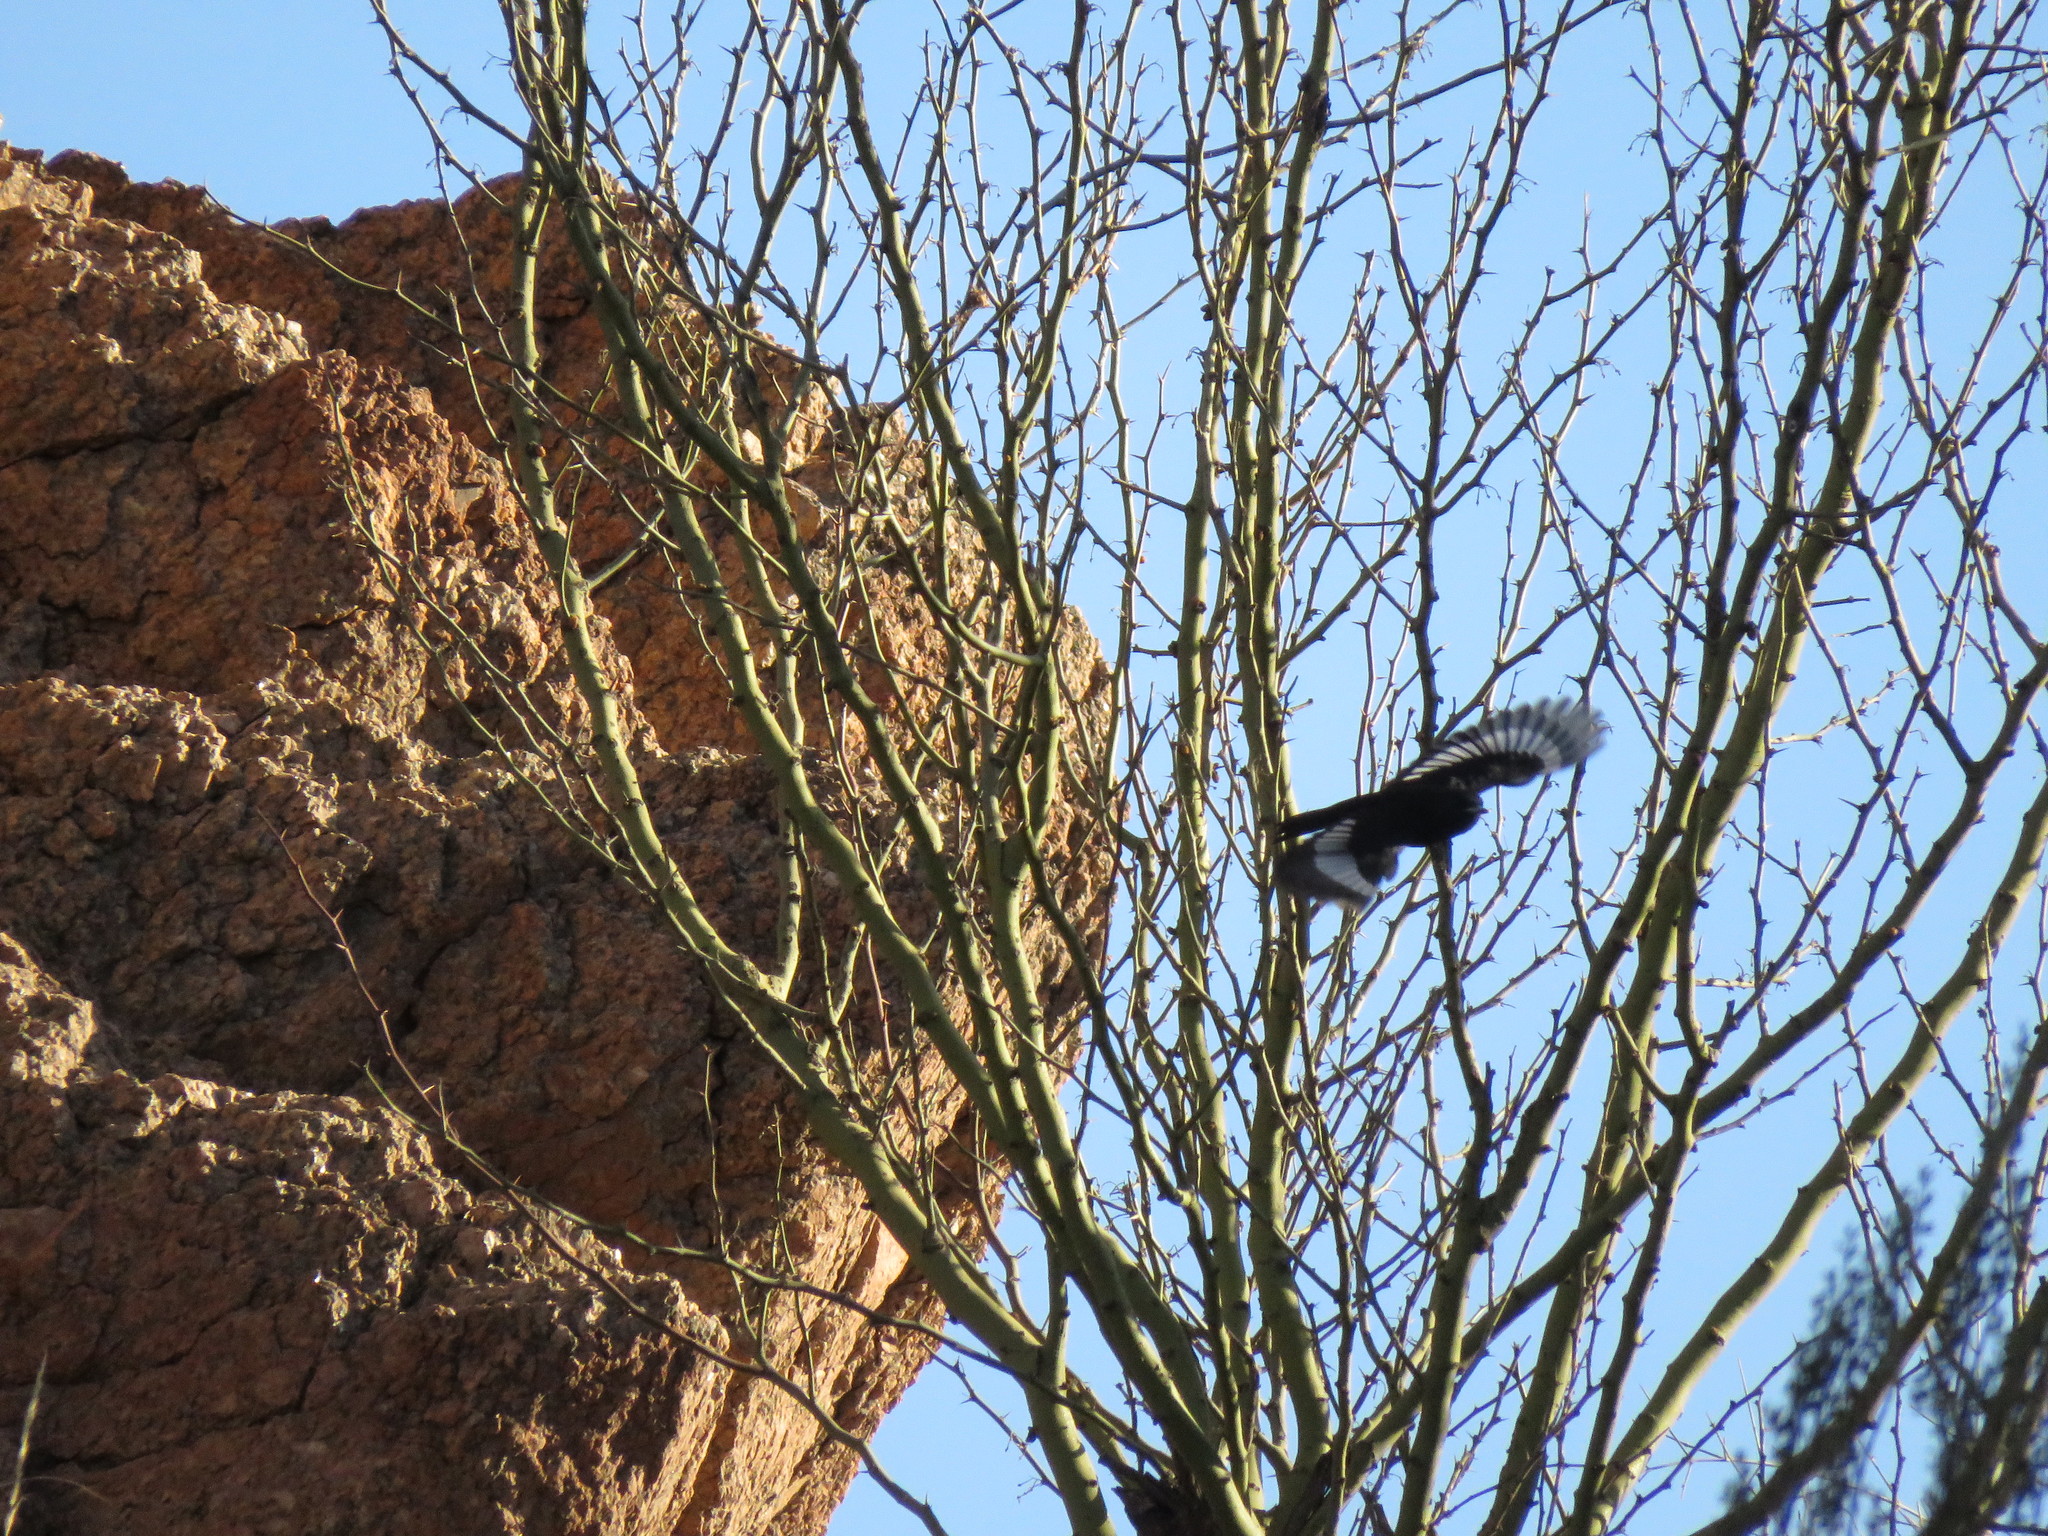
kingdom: Animalia
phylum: Chordata
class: Aves
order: Passeriformes
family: Tyrannidae
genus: Knipolegus
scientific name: Knipolegus aterrimus
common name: White-winged black tyrant
